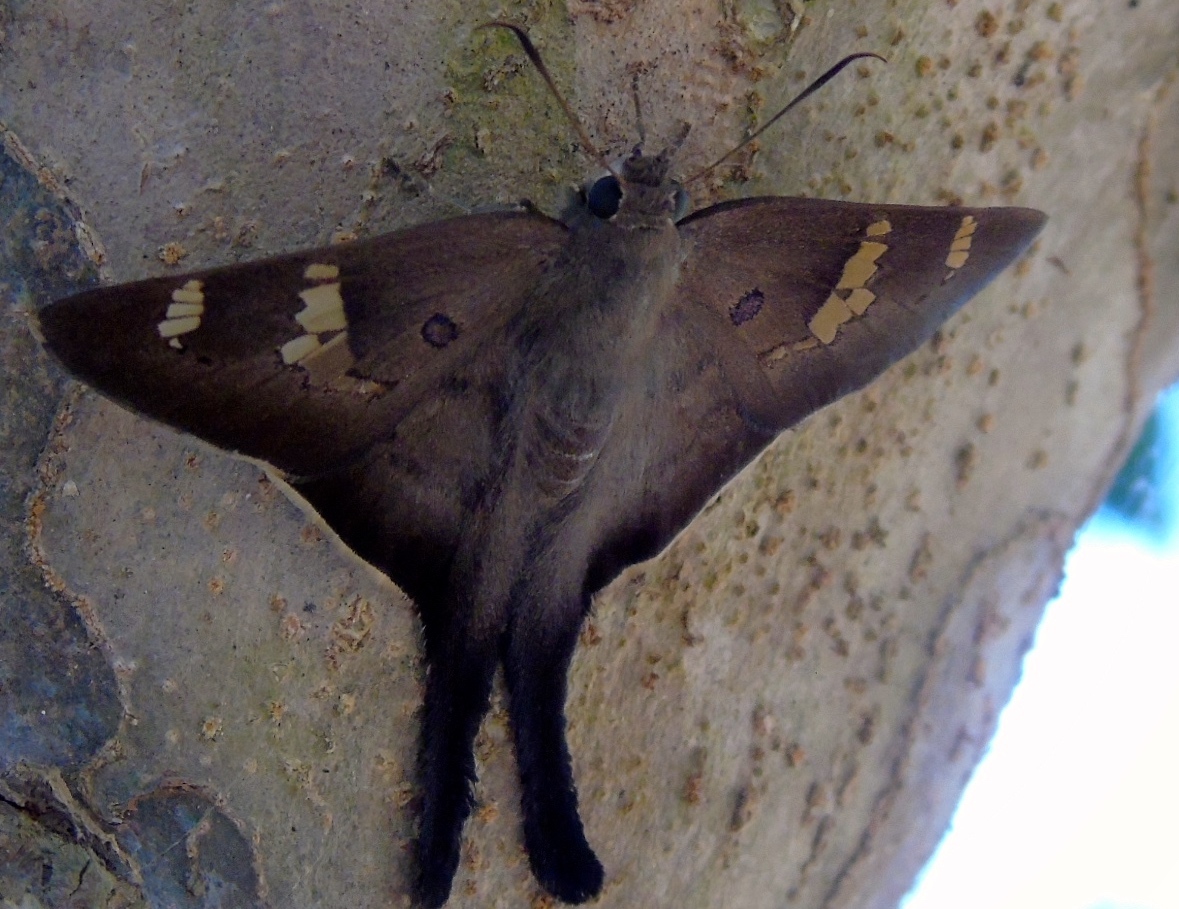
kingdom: Animalia
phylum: Arthropoda
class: Insecta
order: Lepidoptera
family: Hesperiidae
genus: Ectomis
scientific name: Ectomis
